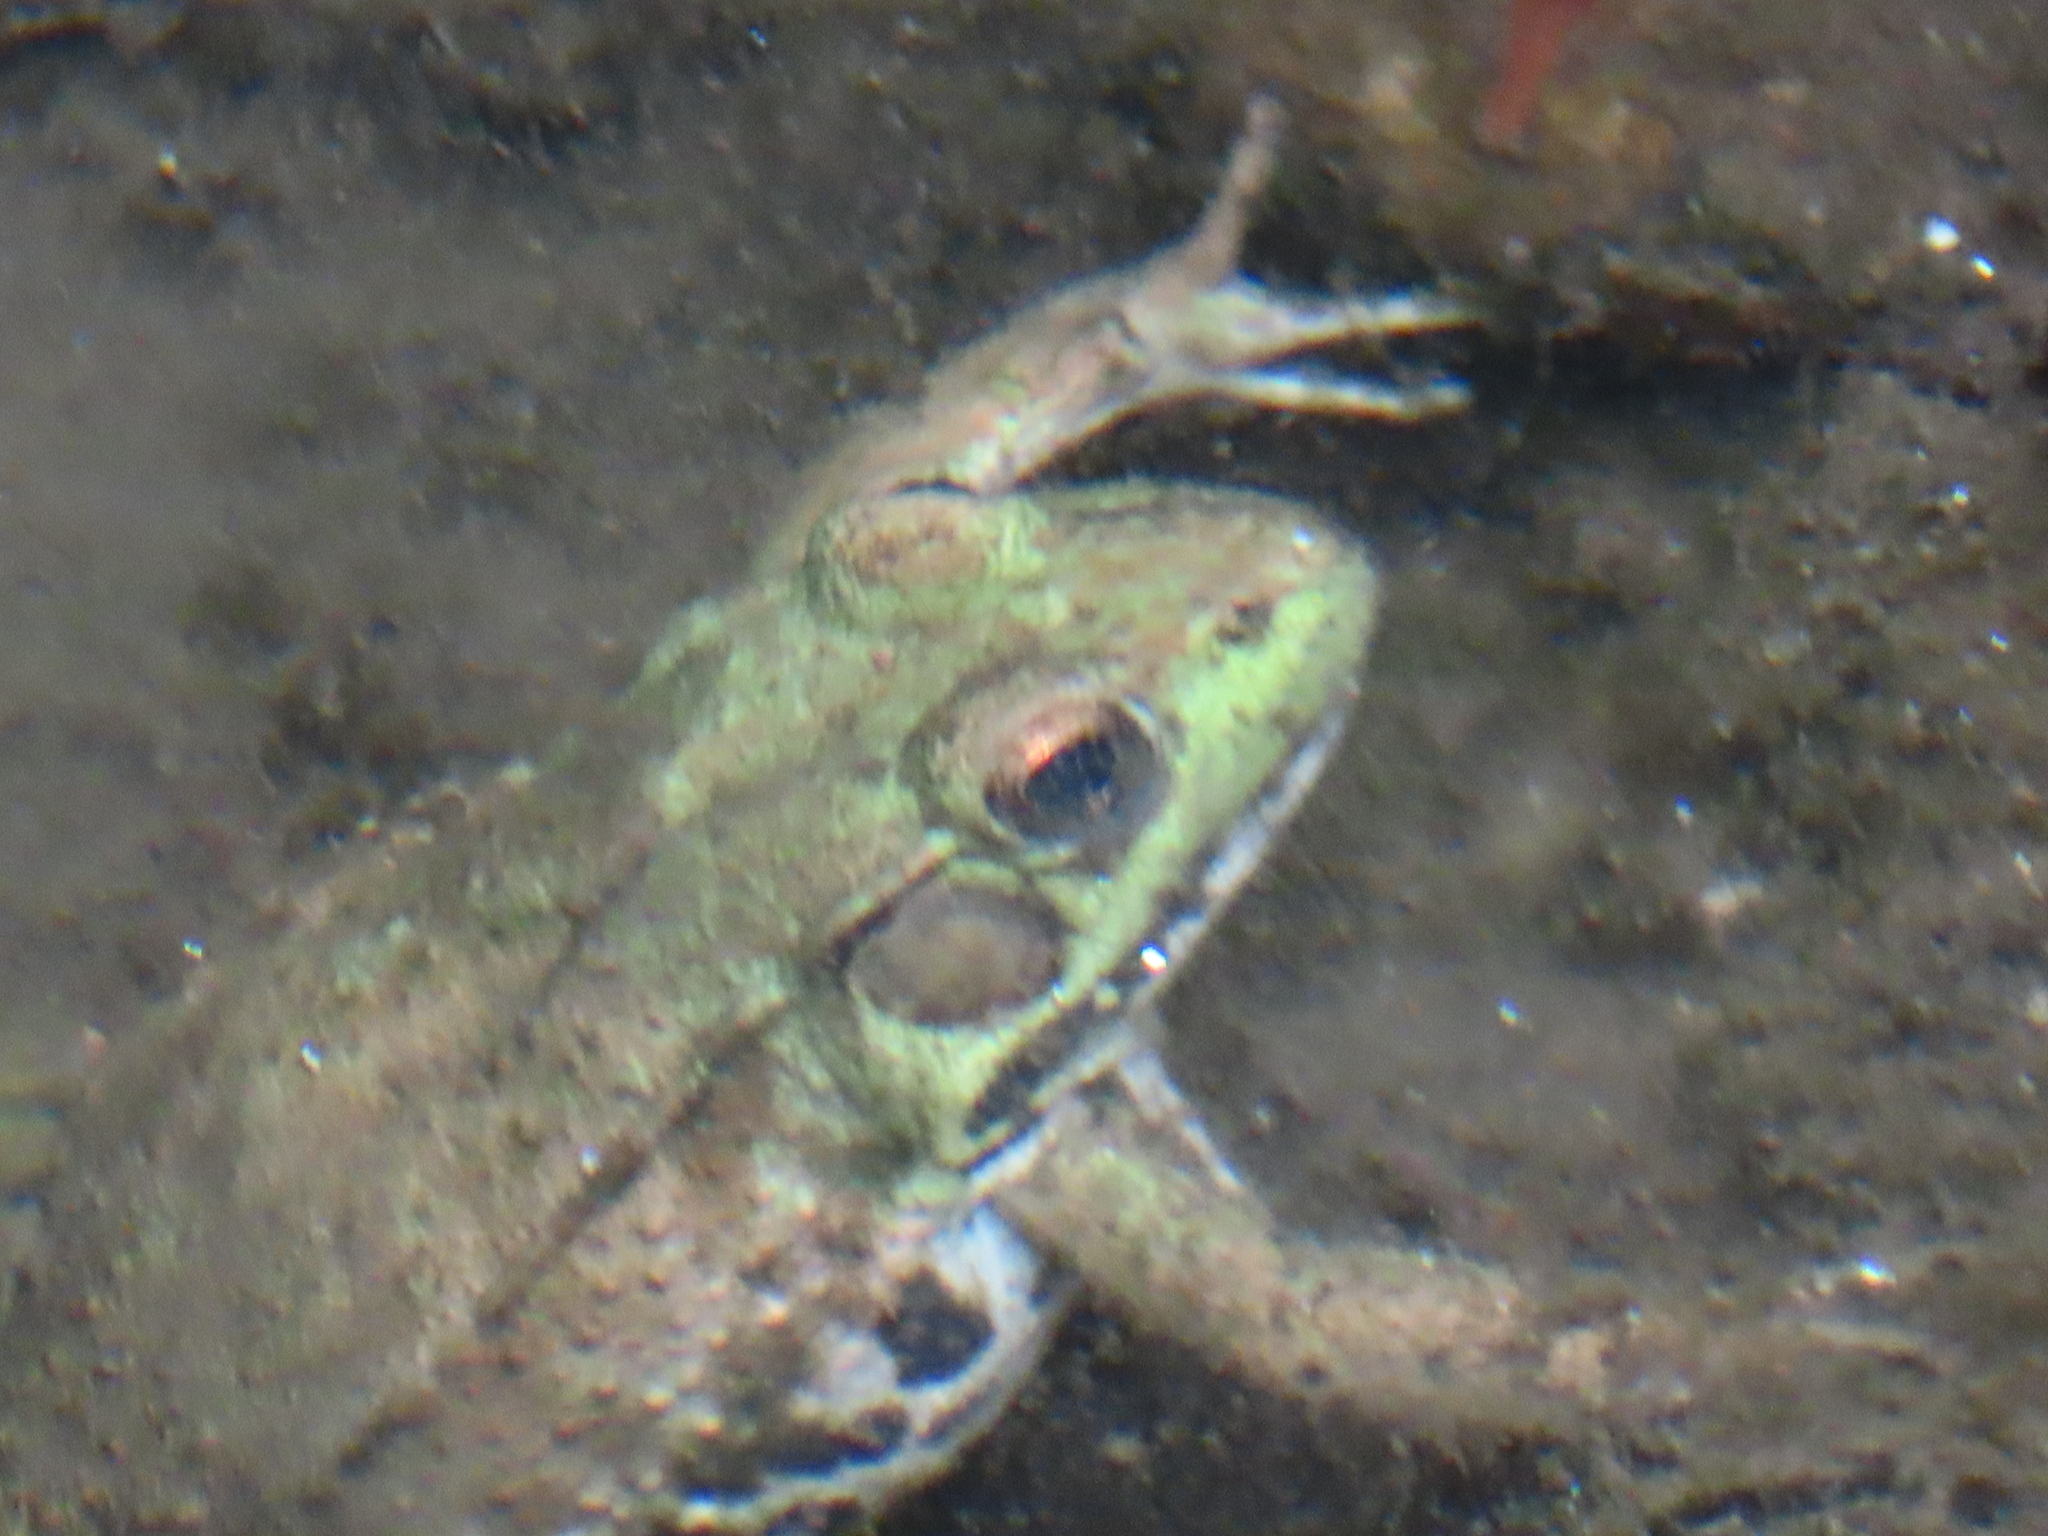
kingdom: Animalia
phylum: Chordata
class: Amphibia
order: Anura
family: Ranidae
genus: Lithobates
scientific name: Lithobates clamitans
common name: Green frog
